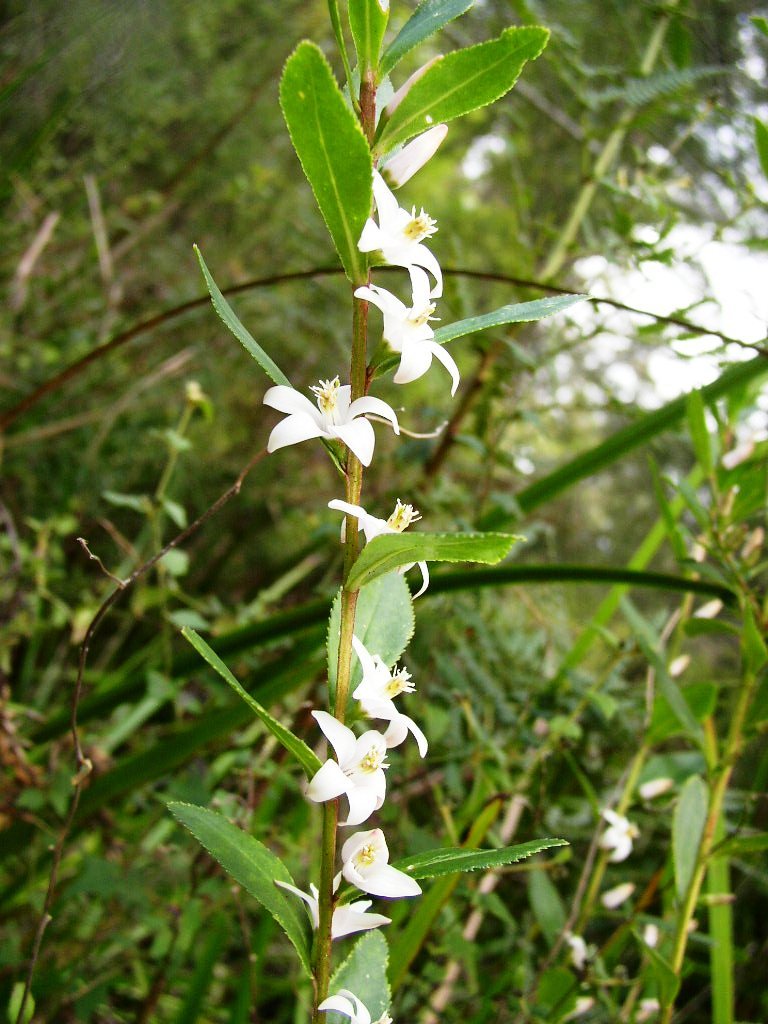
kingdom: Plantae
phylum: Tracheophyta
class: Magnoliopsida
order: Sapindales
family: Rutaceae
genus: Crowea
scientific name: Crowea angustifolia
